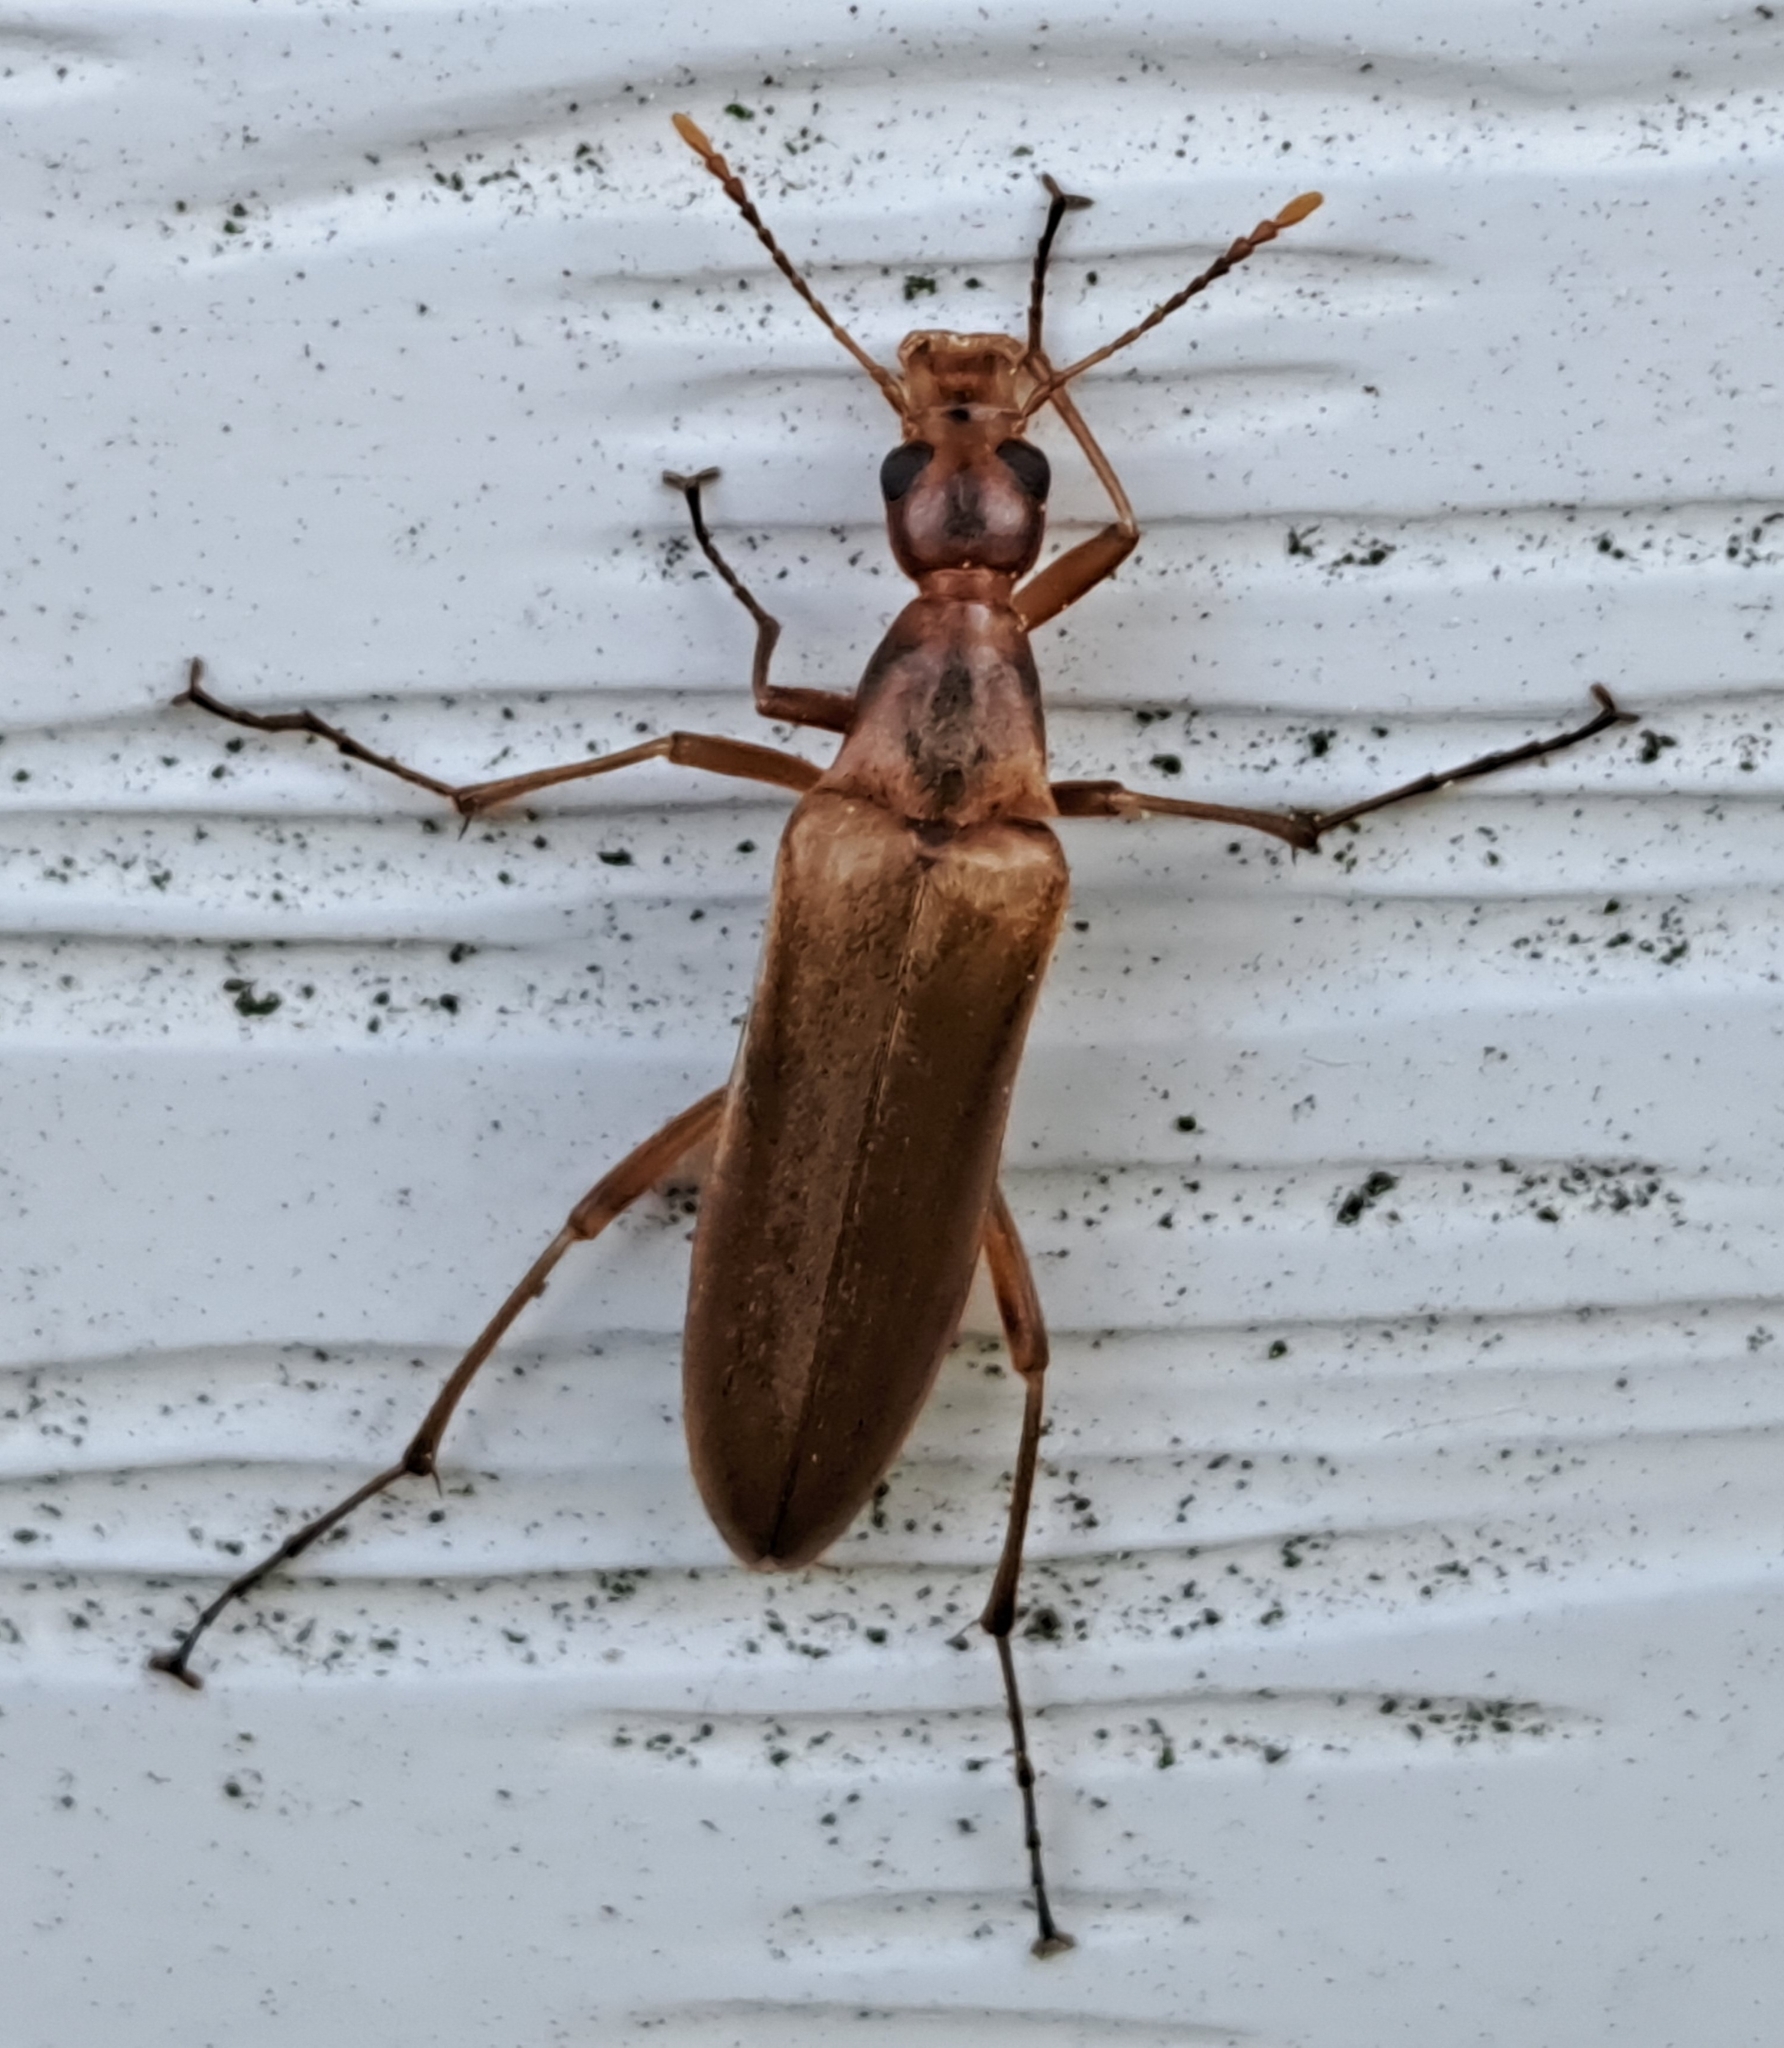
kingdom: Animalia
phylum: Arthropoda
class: Insecta
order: Coleoptera
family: Stenotrachelidae
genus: Cephaloon
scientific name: Cephaloon lepturides
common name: False leptura beetle
